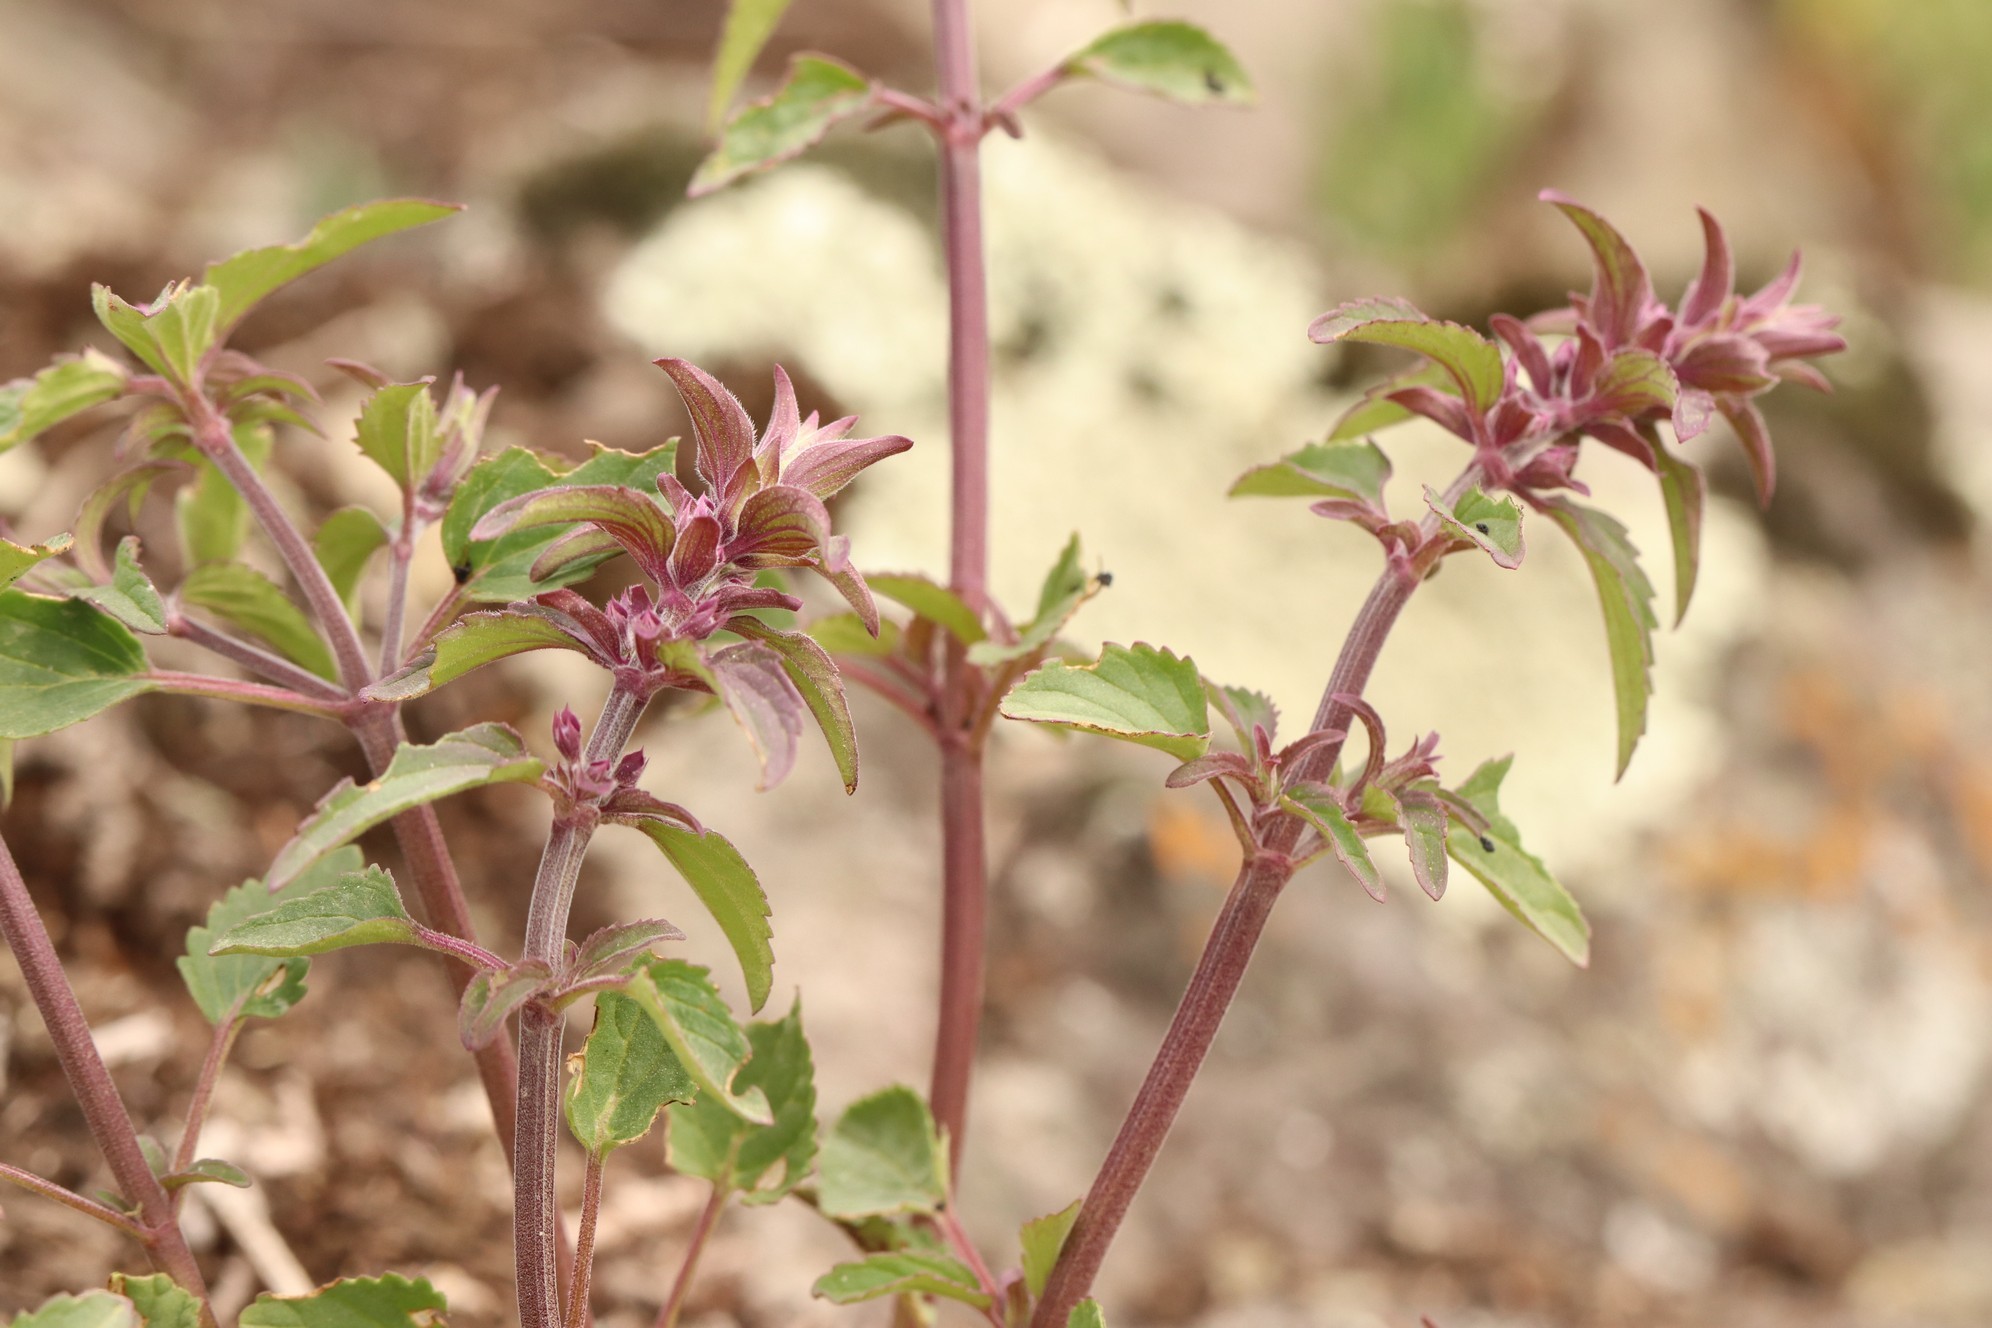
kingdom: Plantae
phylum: Tracheophyta
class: Magnoliopsida
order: Lamiales
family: Lamiaceae
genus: Dracocephalum
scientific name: Dracocephalum nutans
